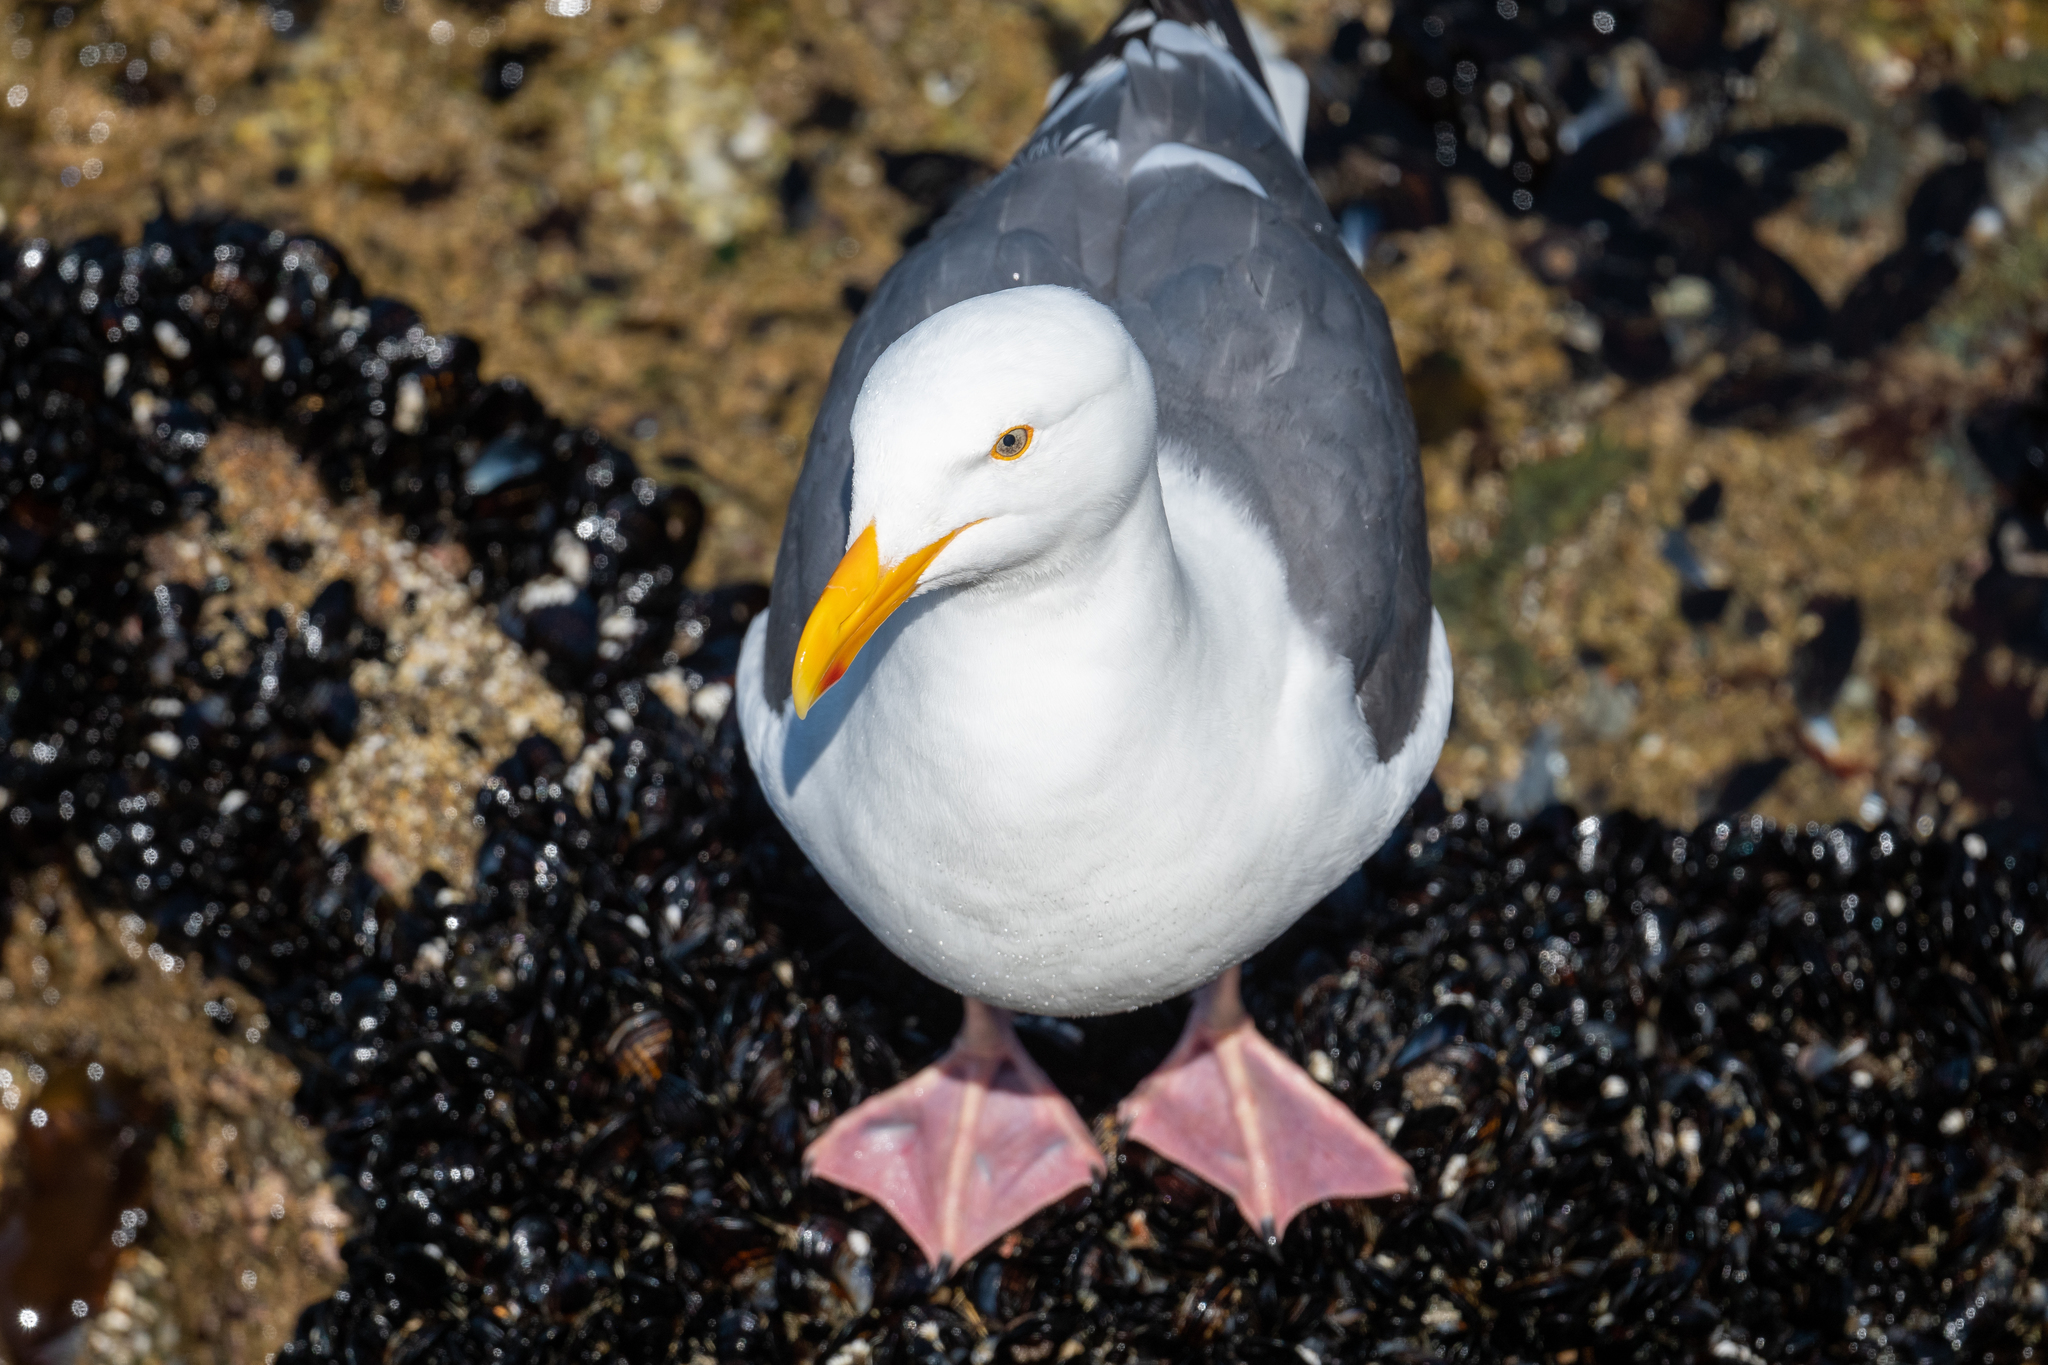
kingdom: Animalia
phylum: Chordata
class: Aves
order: Charadriiformes
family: Laridae
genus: Larus
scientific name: Larus occidentalis
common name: Western gull
